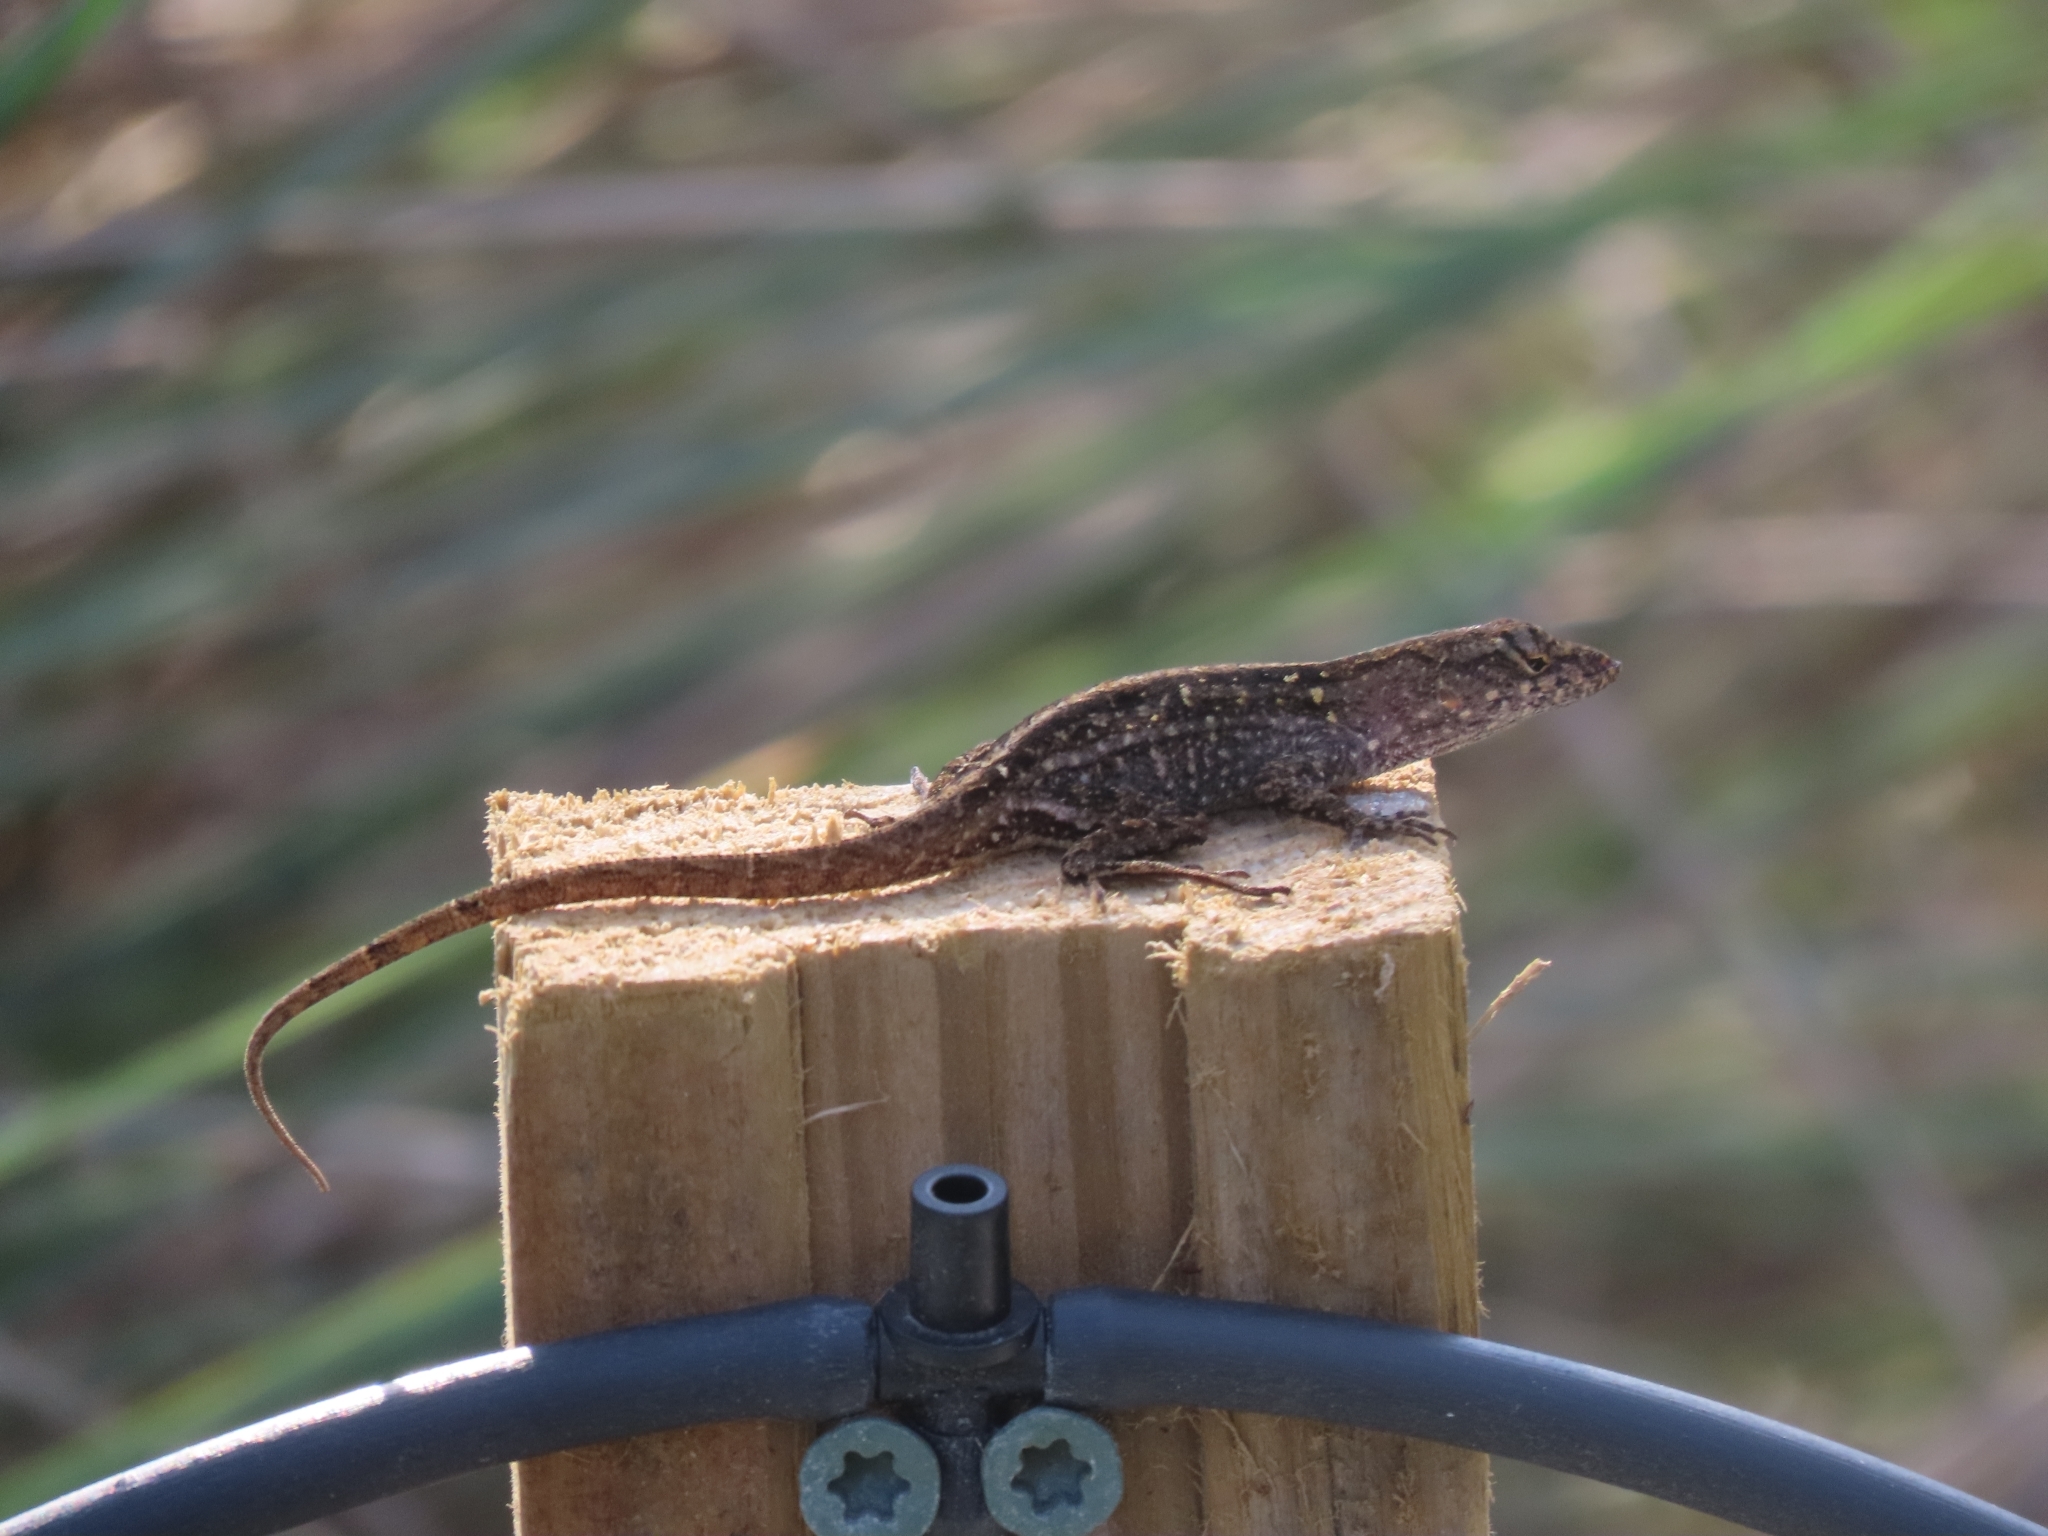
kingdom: Animalia
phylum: Chordata
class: Squamata
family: Dactyloidae
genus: Anolis
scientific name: Anolis sagrei
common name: Brown anole
